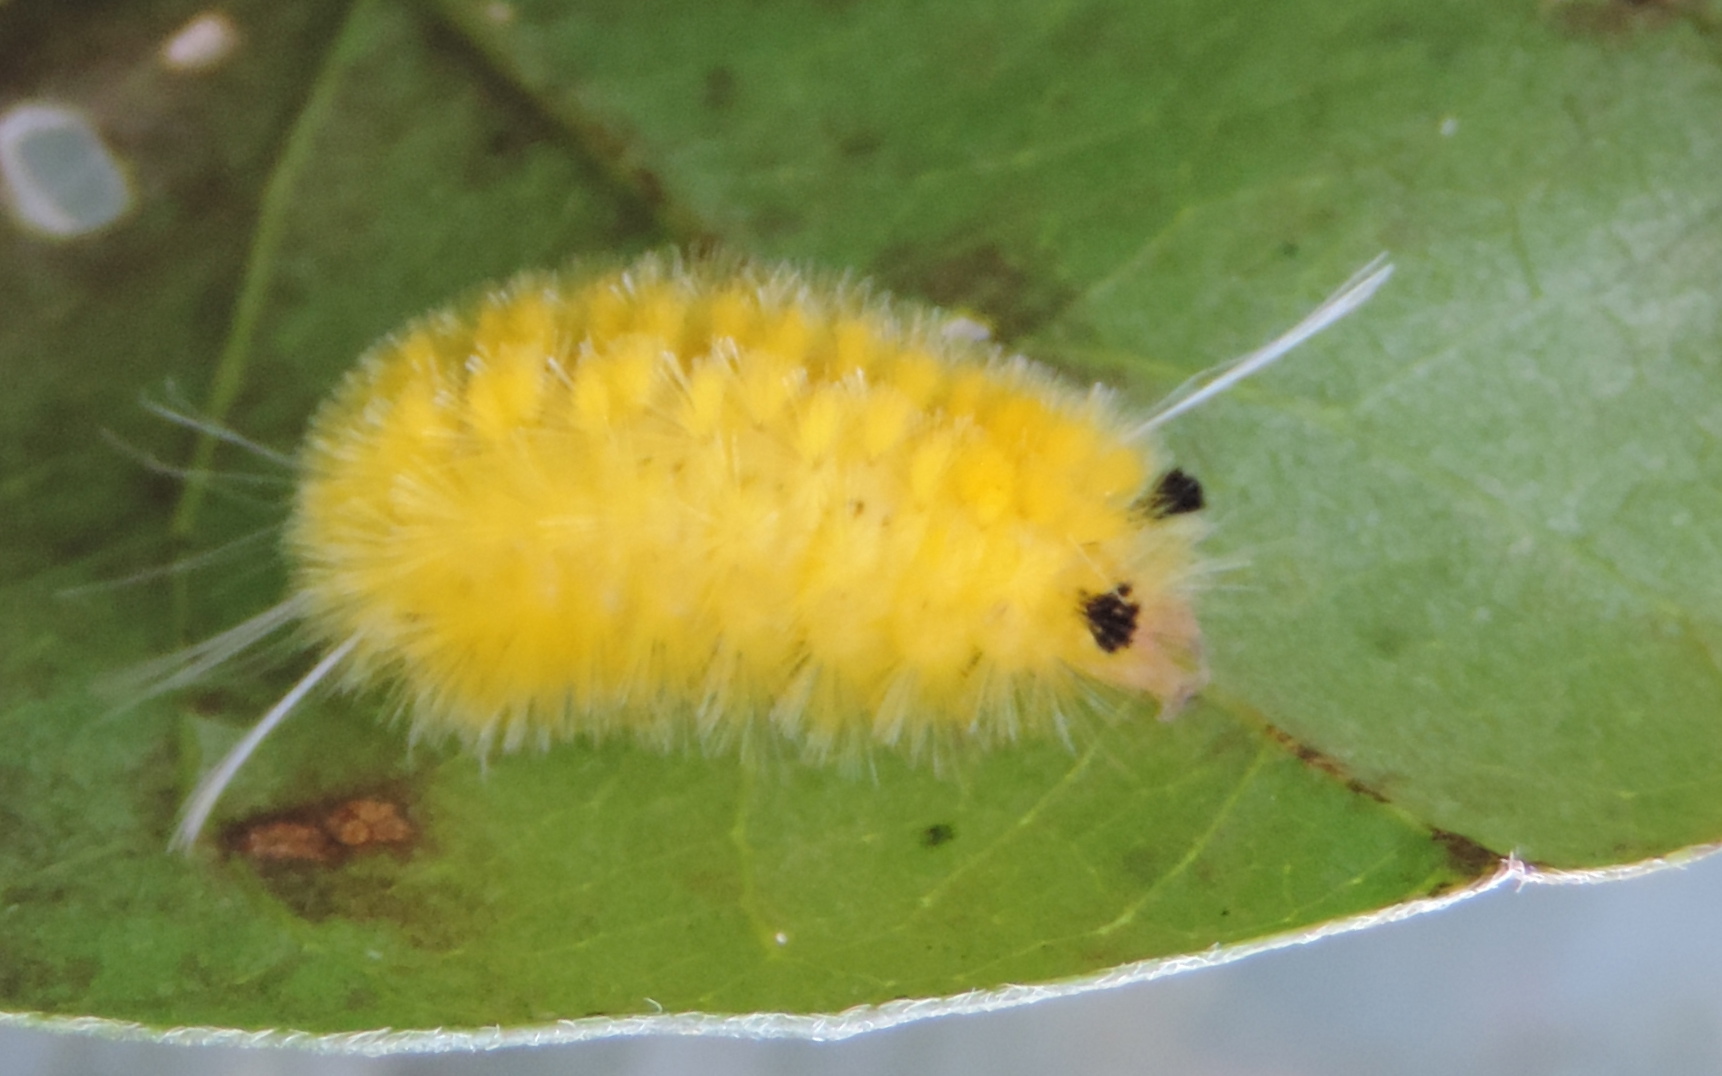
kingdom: Animalia
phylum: Arthropoda
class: Insecta
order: Lepidoptera
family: Erebidae
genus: Lophocampa
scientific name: Lophocampa annulosa
